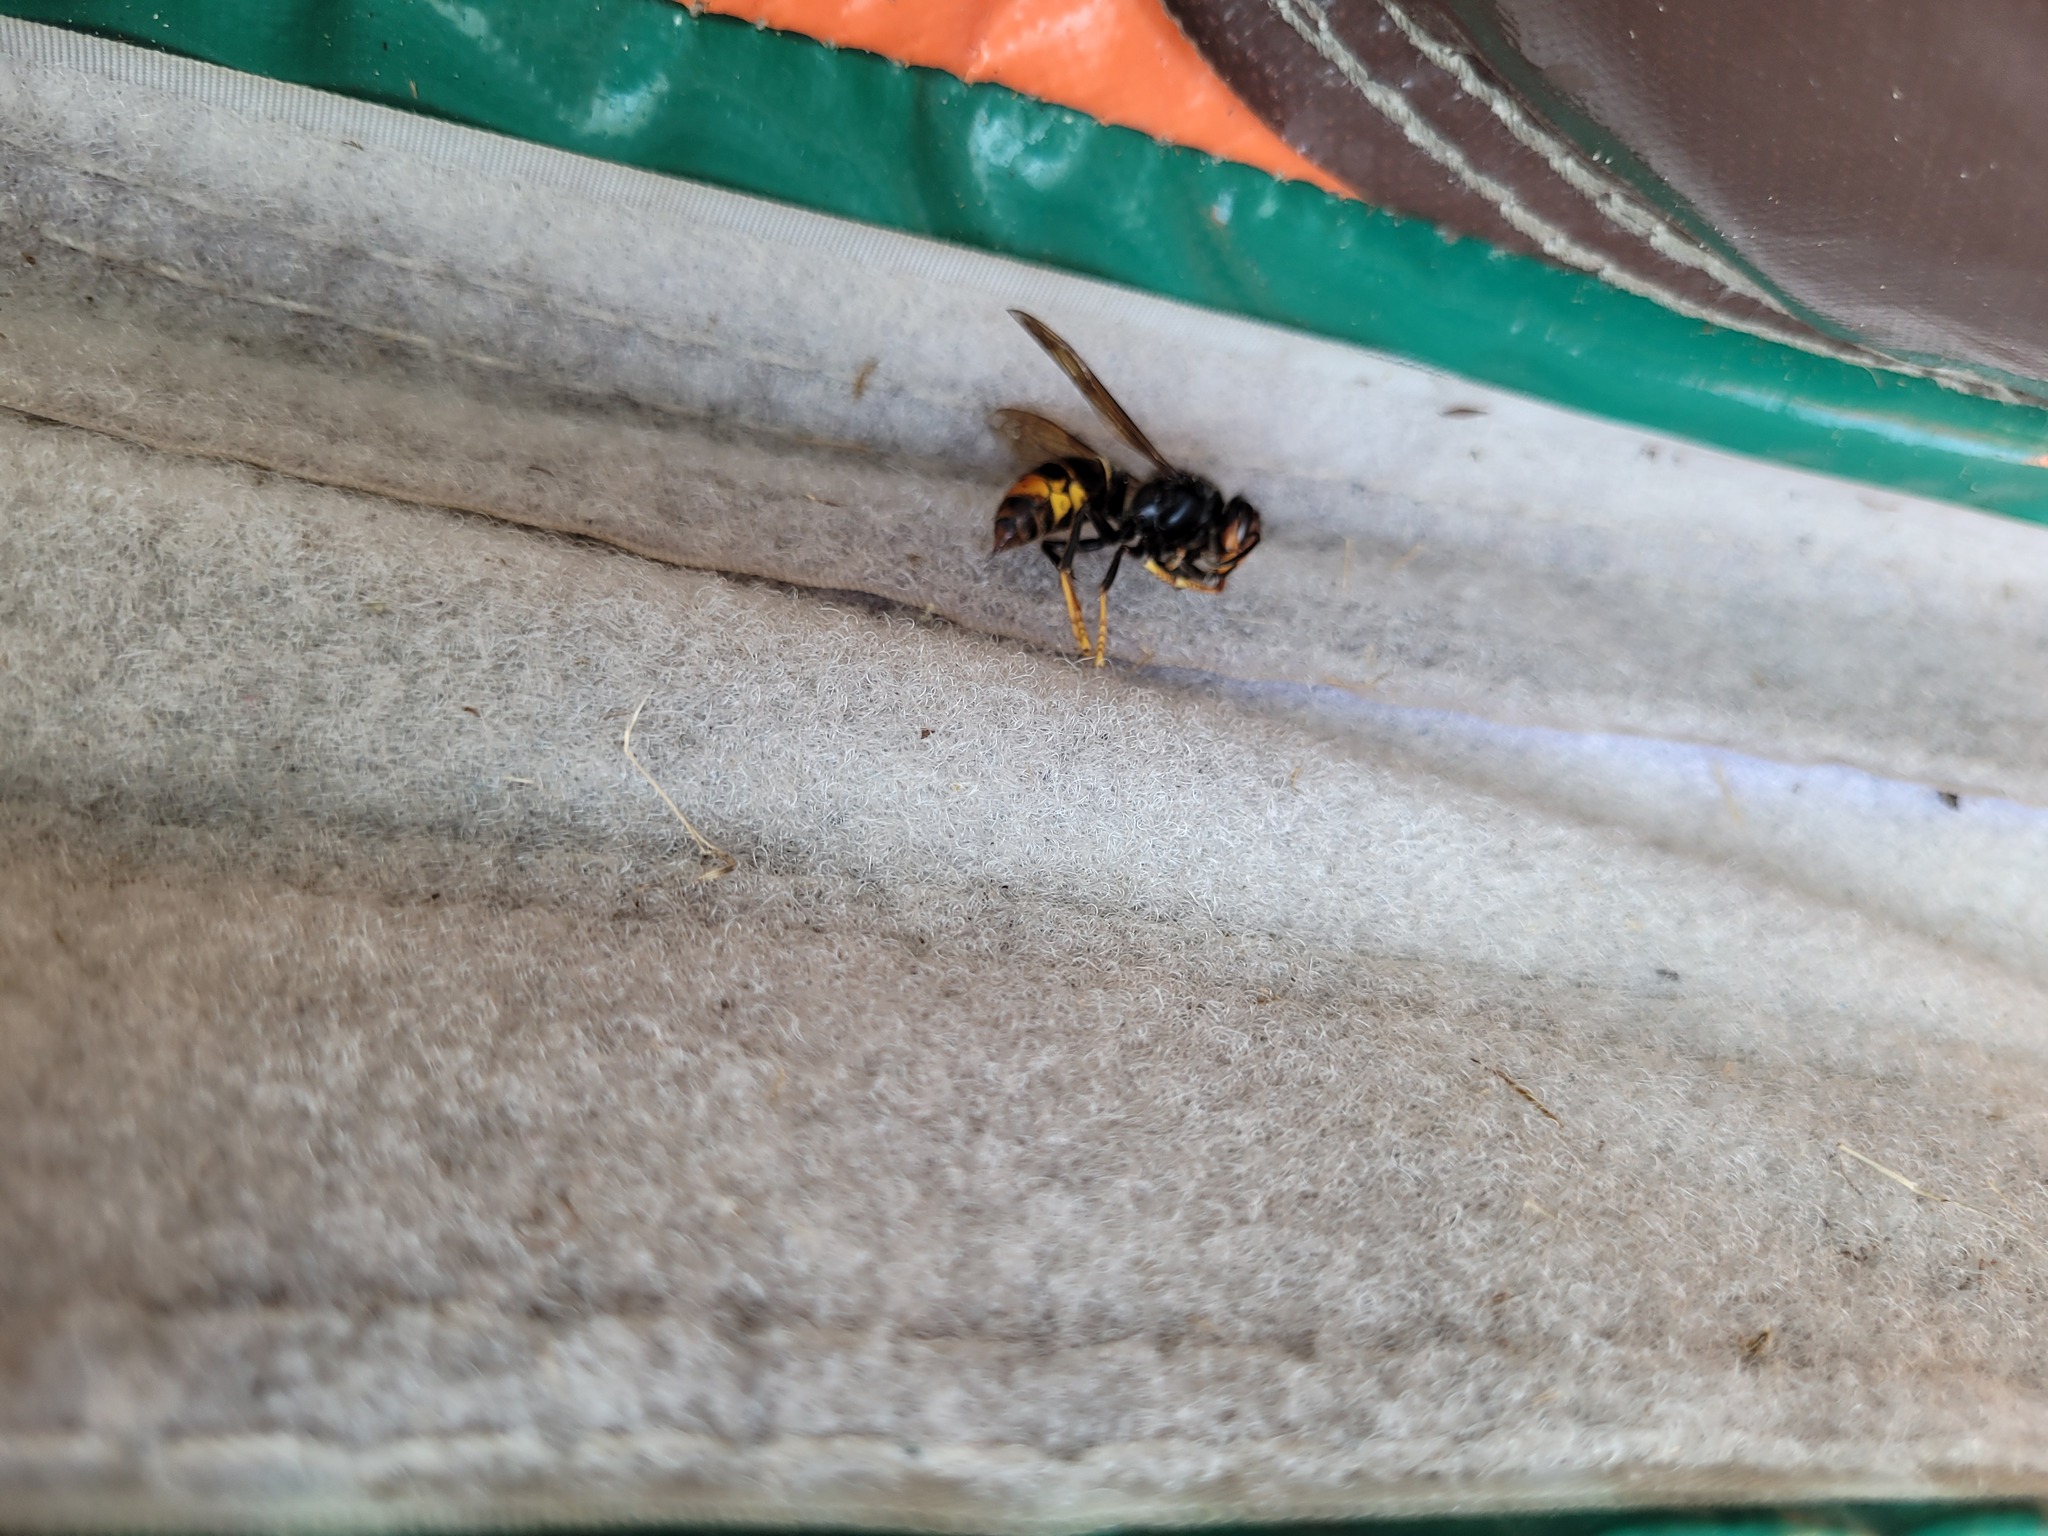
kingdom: Animalia
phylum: Arthropoda
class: Insecta
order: Hymenoptera
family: Vespidae
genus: Vespa
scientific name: Vespa velutina
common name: Asian hornet
